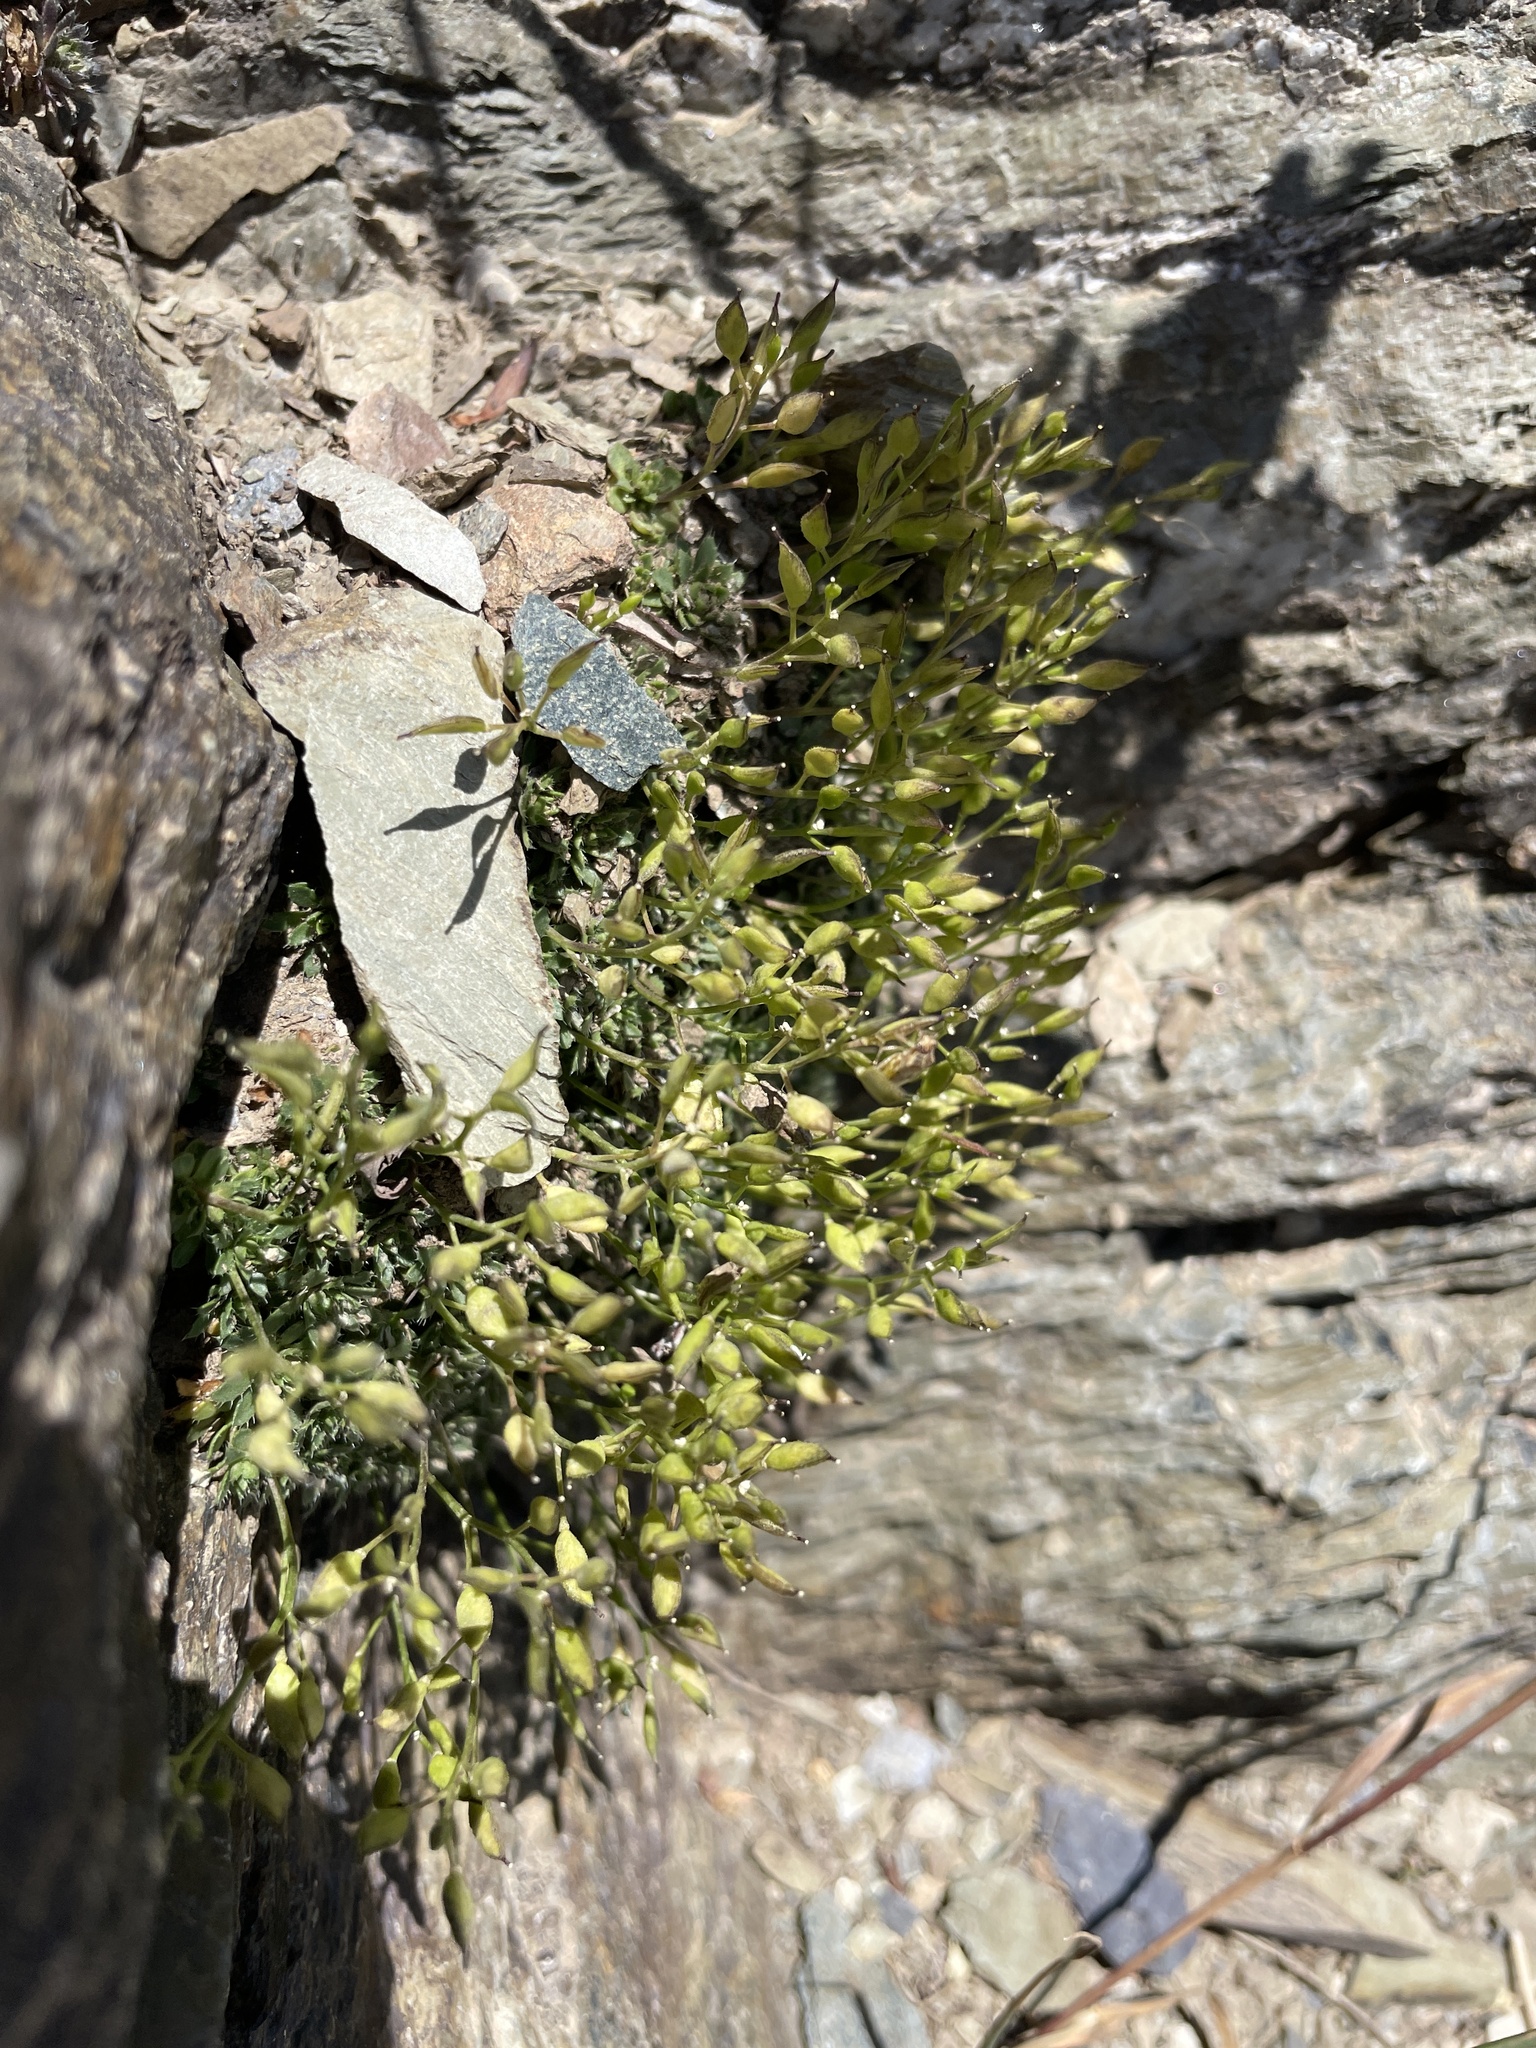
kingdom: Plantae
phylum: Tracheophyta
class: Magnoliopsida
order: Brassicales
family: Brassicaceae
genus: Draba
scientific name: Draba burkei
